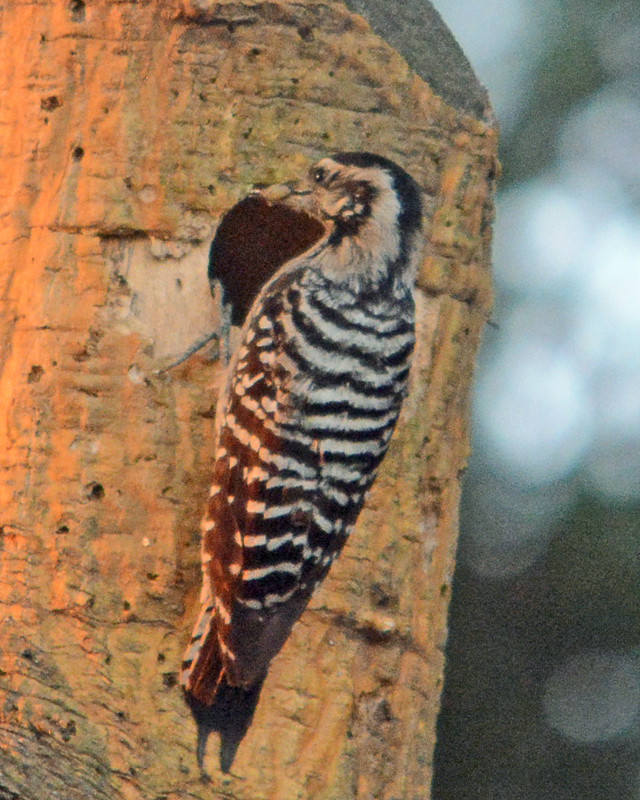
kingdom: Animalia
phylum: Chordata
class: Aves
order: Piciformes
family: Picidae
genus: Dryobates
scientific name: Dryobates scalaris
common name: Ladder-backed woodpecker
